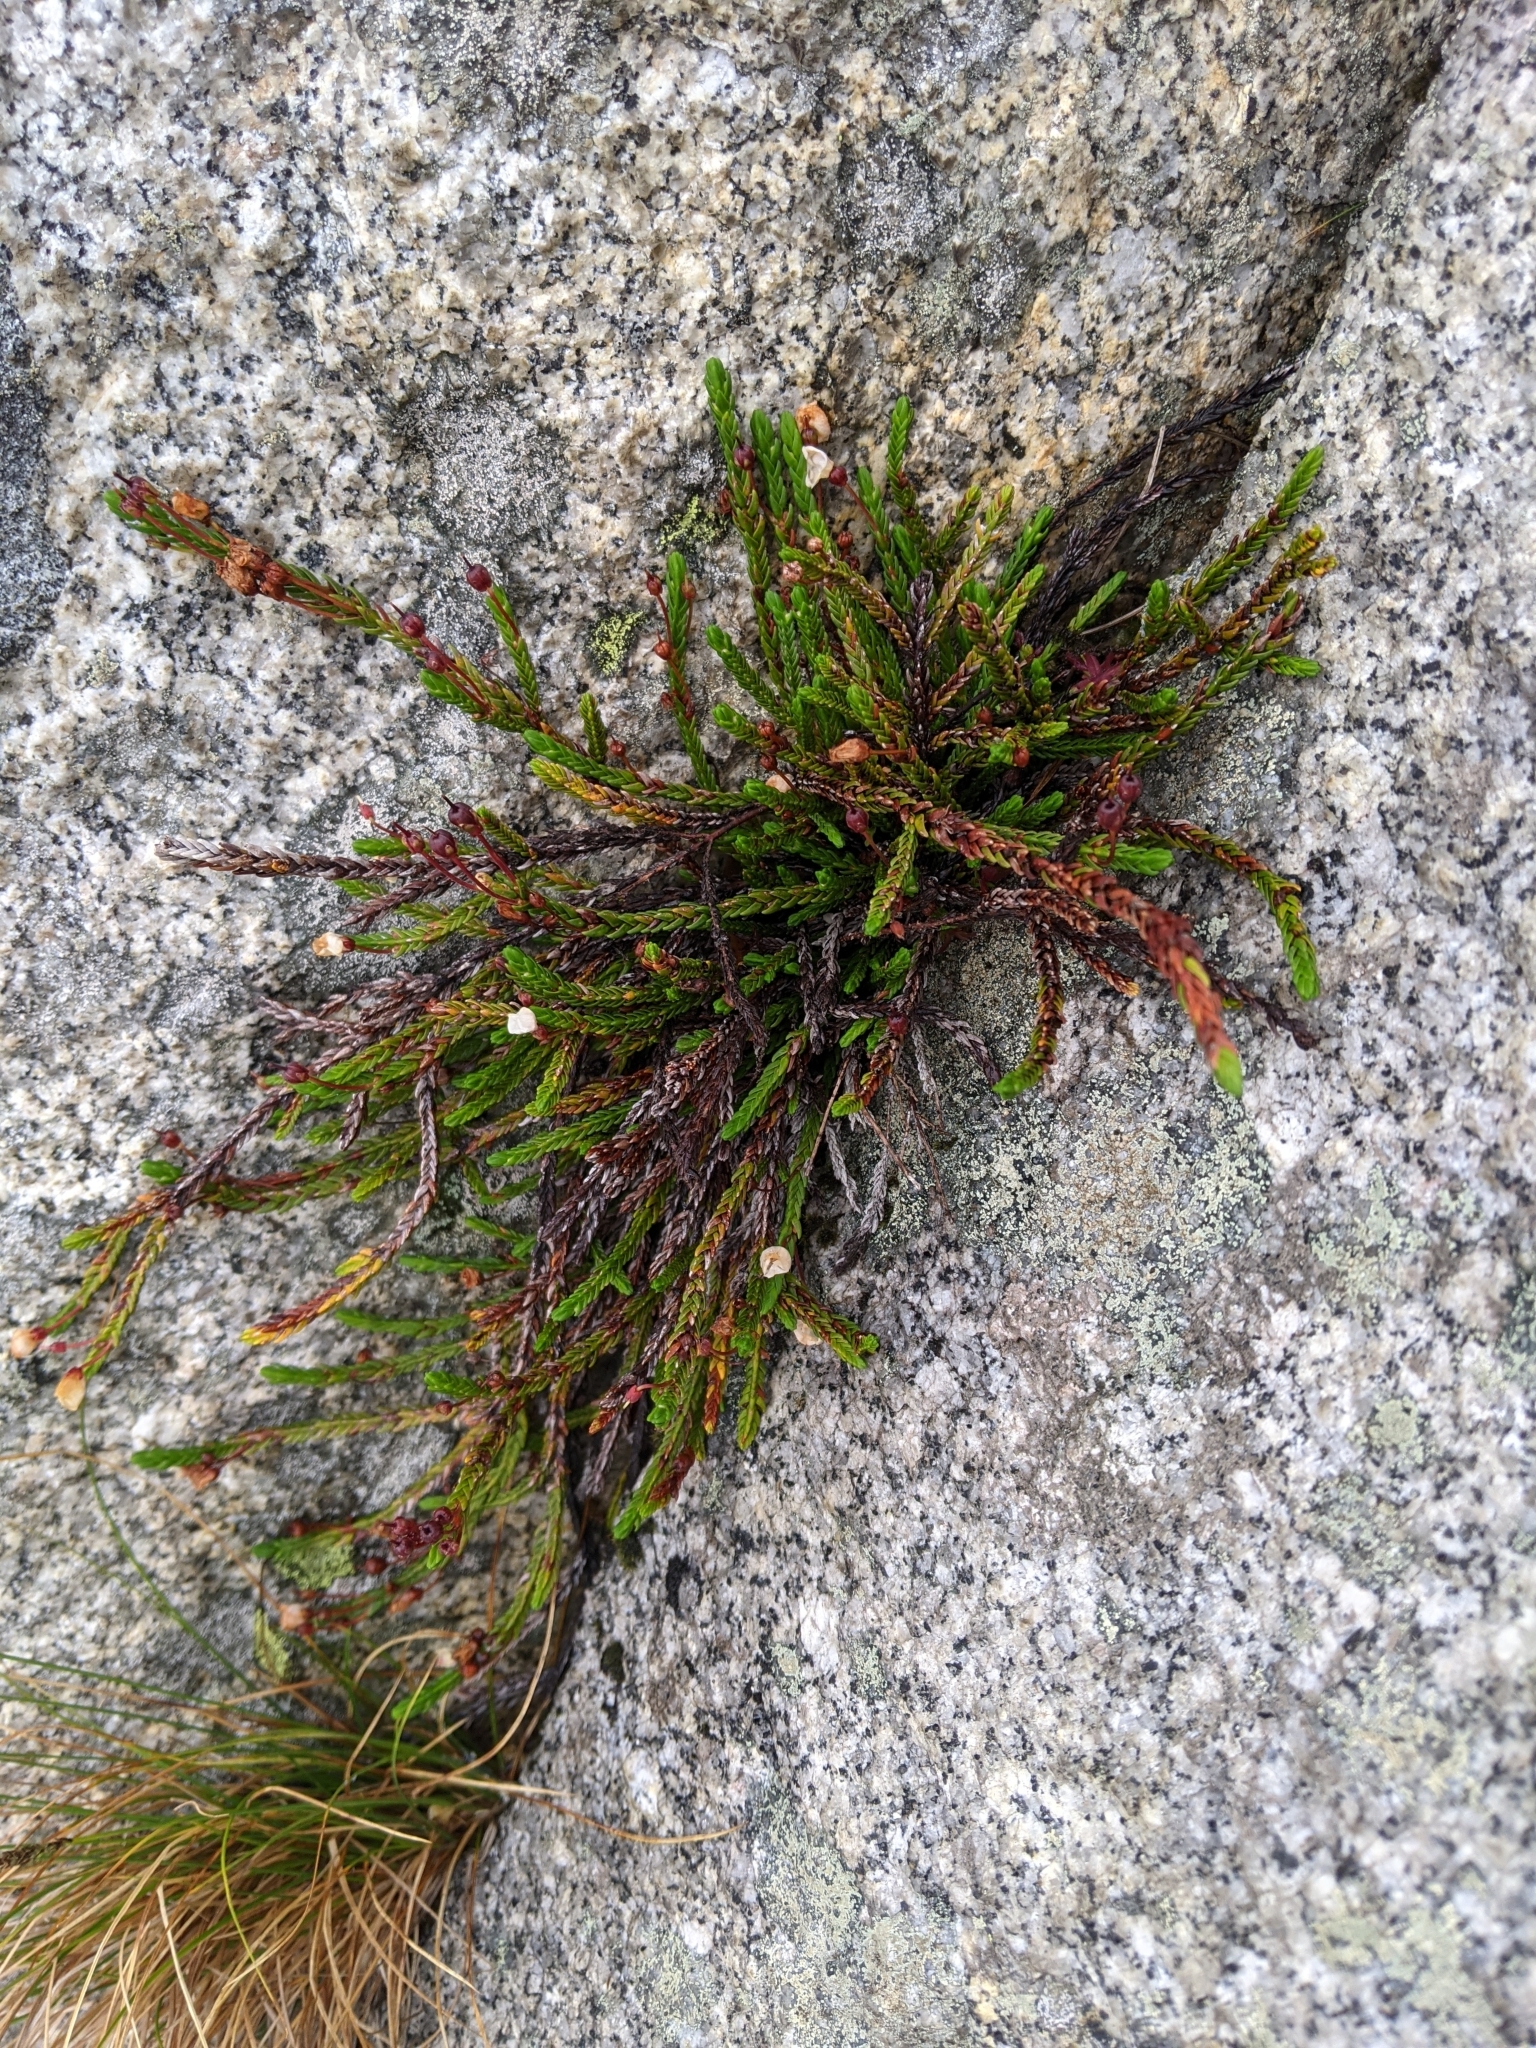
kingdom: Plantae
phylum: Tracheophyta
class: Magnoliopsida
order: Ericales
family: Ericaceae
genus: Cassiope
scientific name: Cassiope mertensiana
